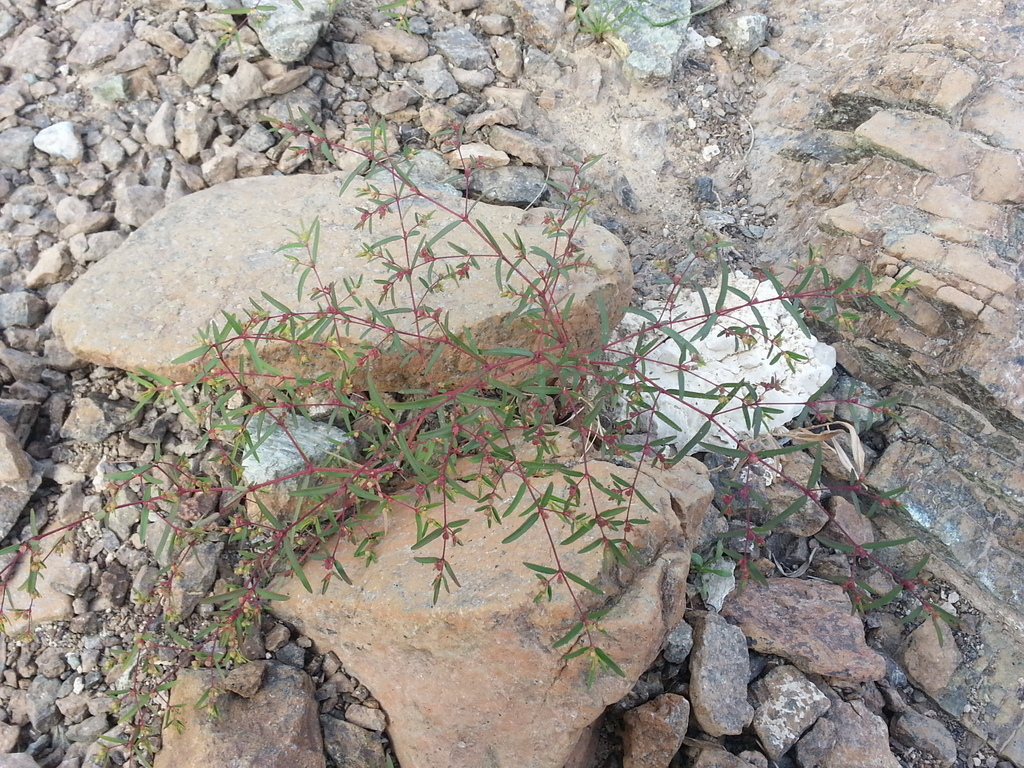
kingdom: Plantae
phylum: Tracheophyta
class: Magnoliopsida
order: Malpighiales
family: Euphorbiaceae
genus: Euphorbia
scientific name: Euphorbia arabica
